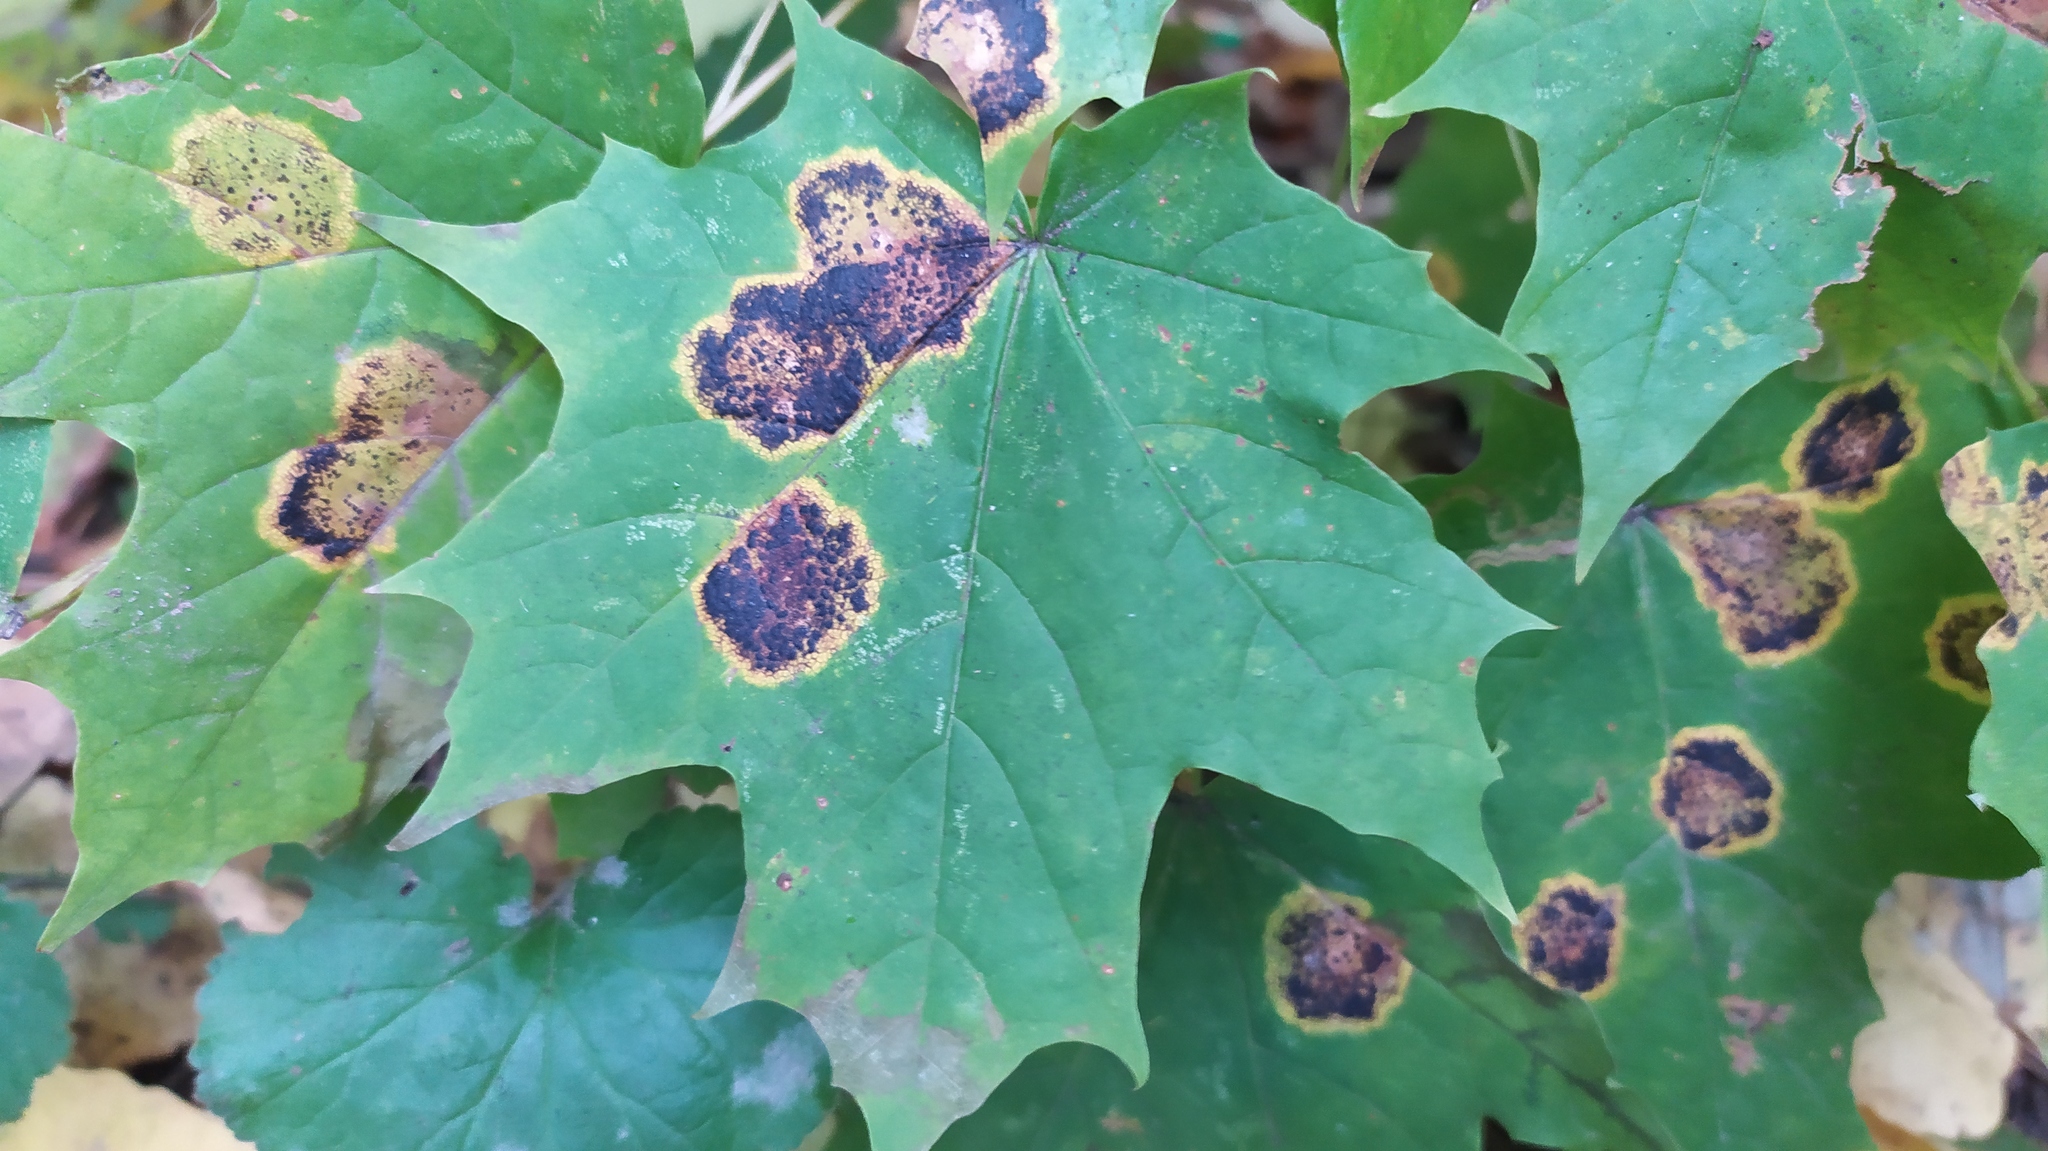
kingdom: Fungi
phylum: Ascomycota
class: Leotiomycetes
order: Rhytismatales
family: Rhytismataceae
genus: Rhytisma
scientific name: Rhytisma acerinum
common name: European tar spot
